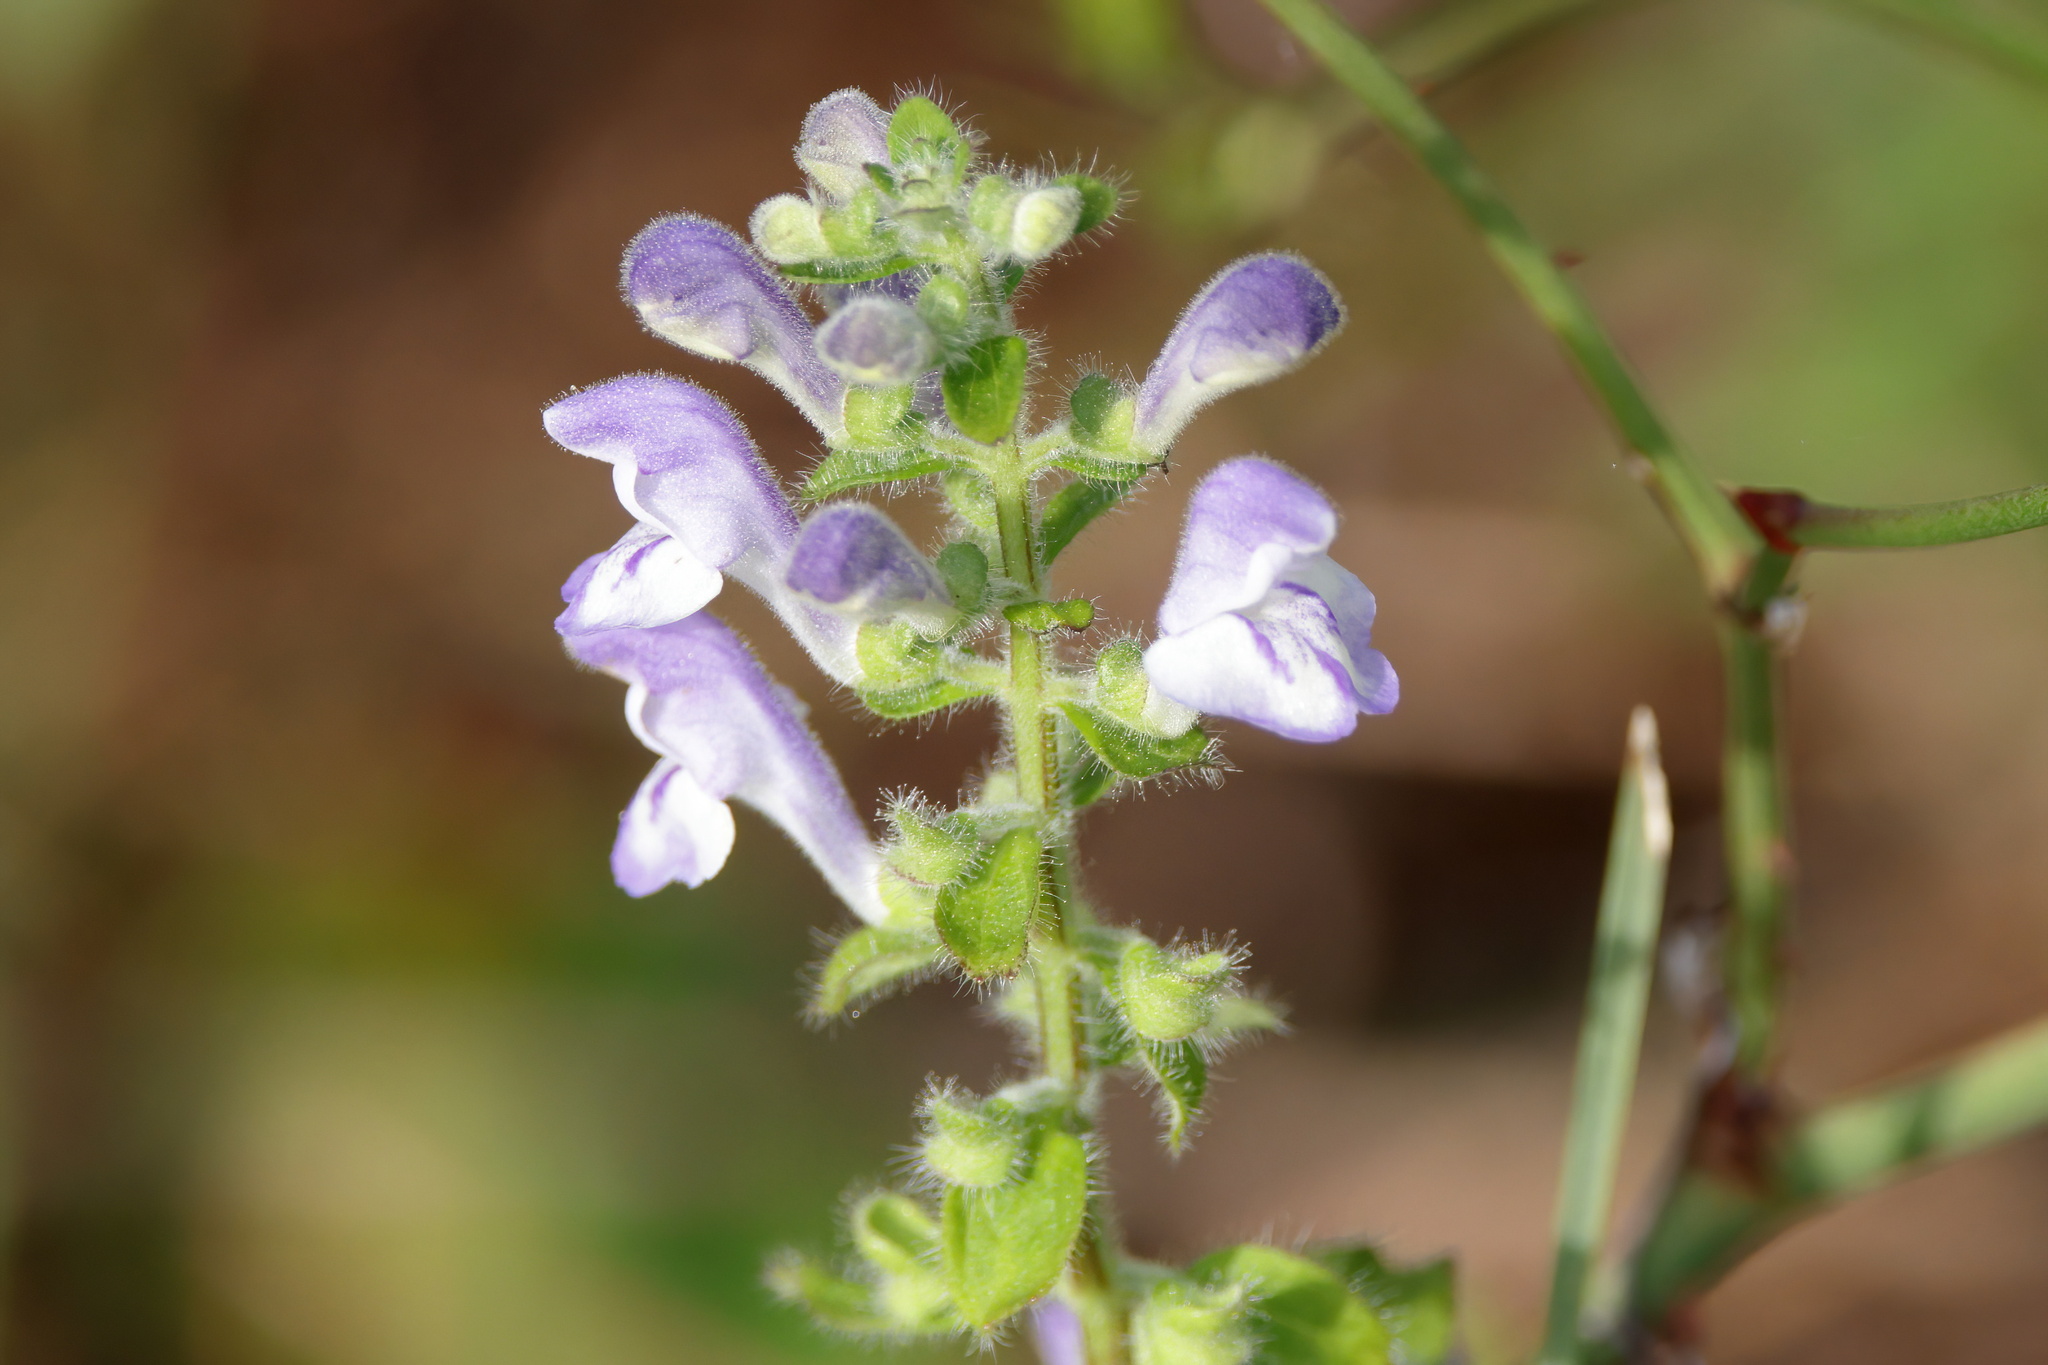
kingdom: Plantae
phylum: Tracheophyta
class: Magnoliopsida
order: Lamiales
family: Lamiaceae
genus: Scutellaria
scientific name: Scutellaria elliptica
